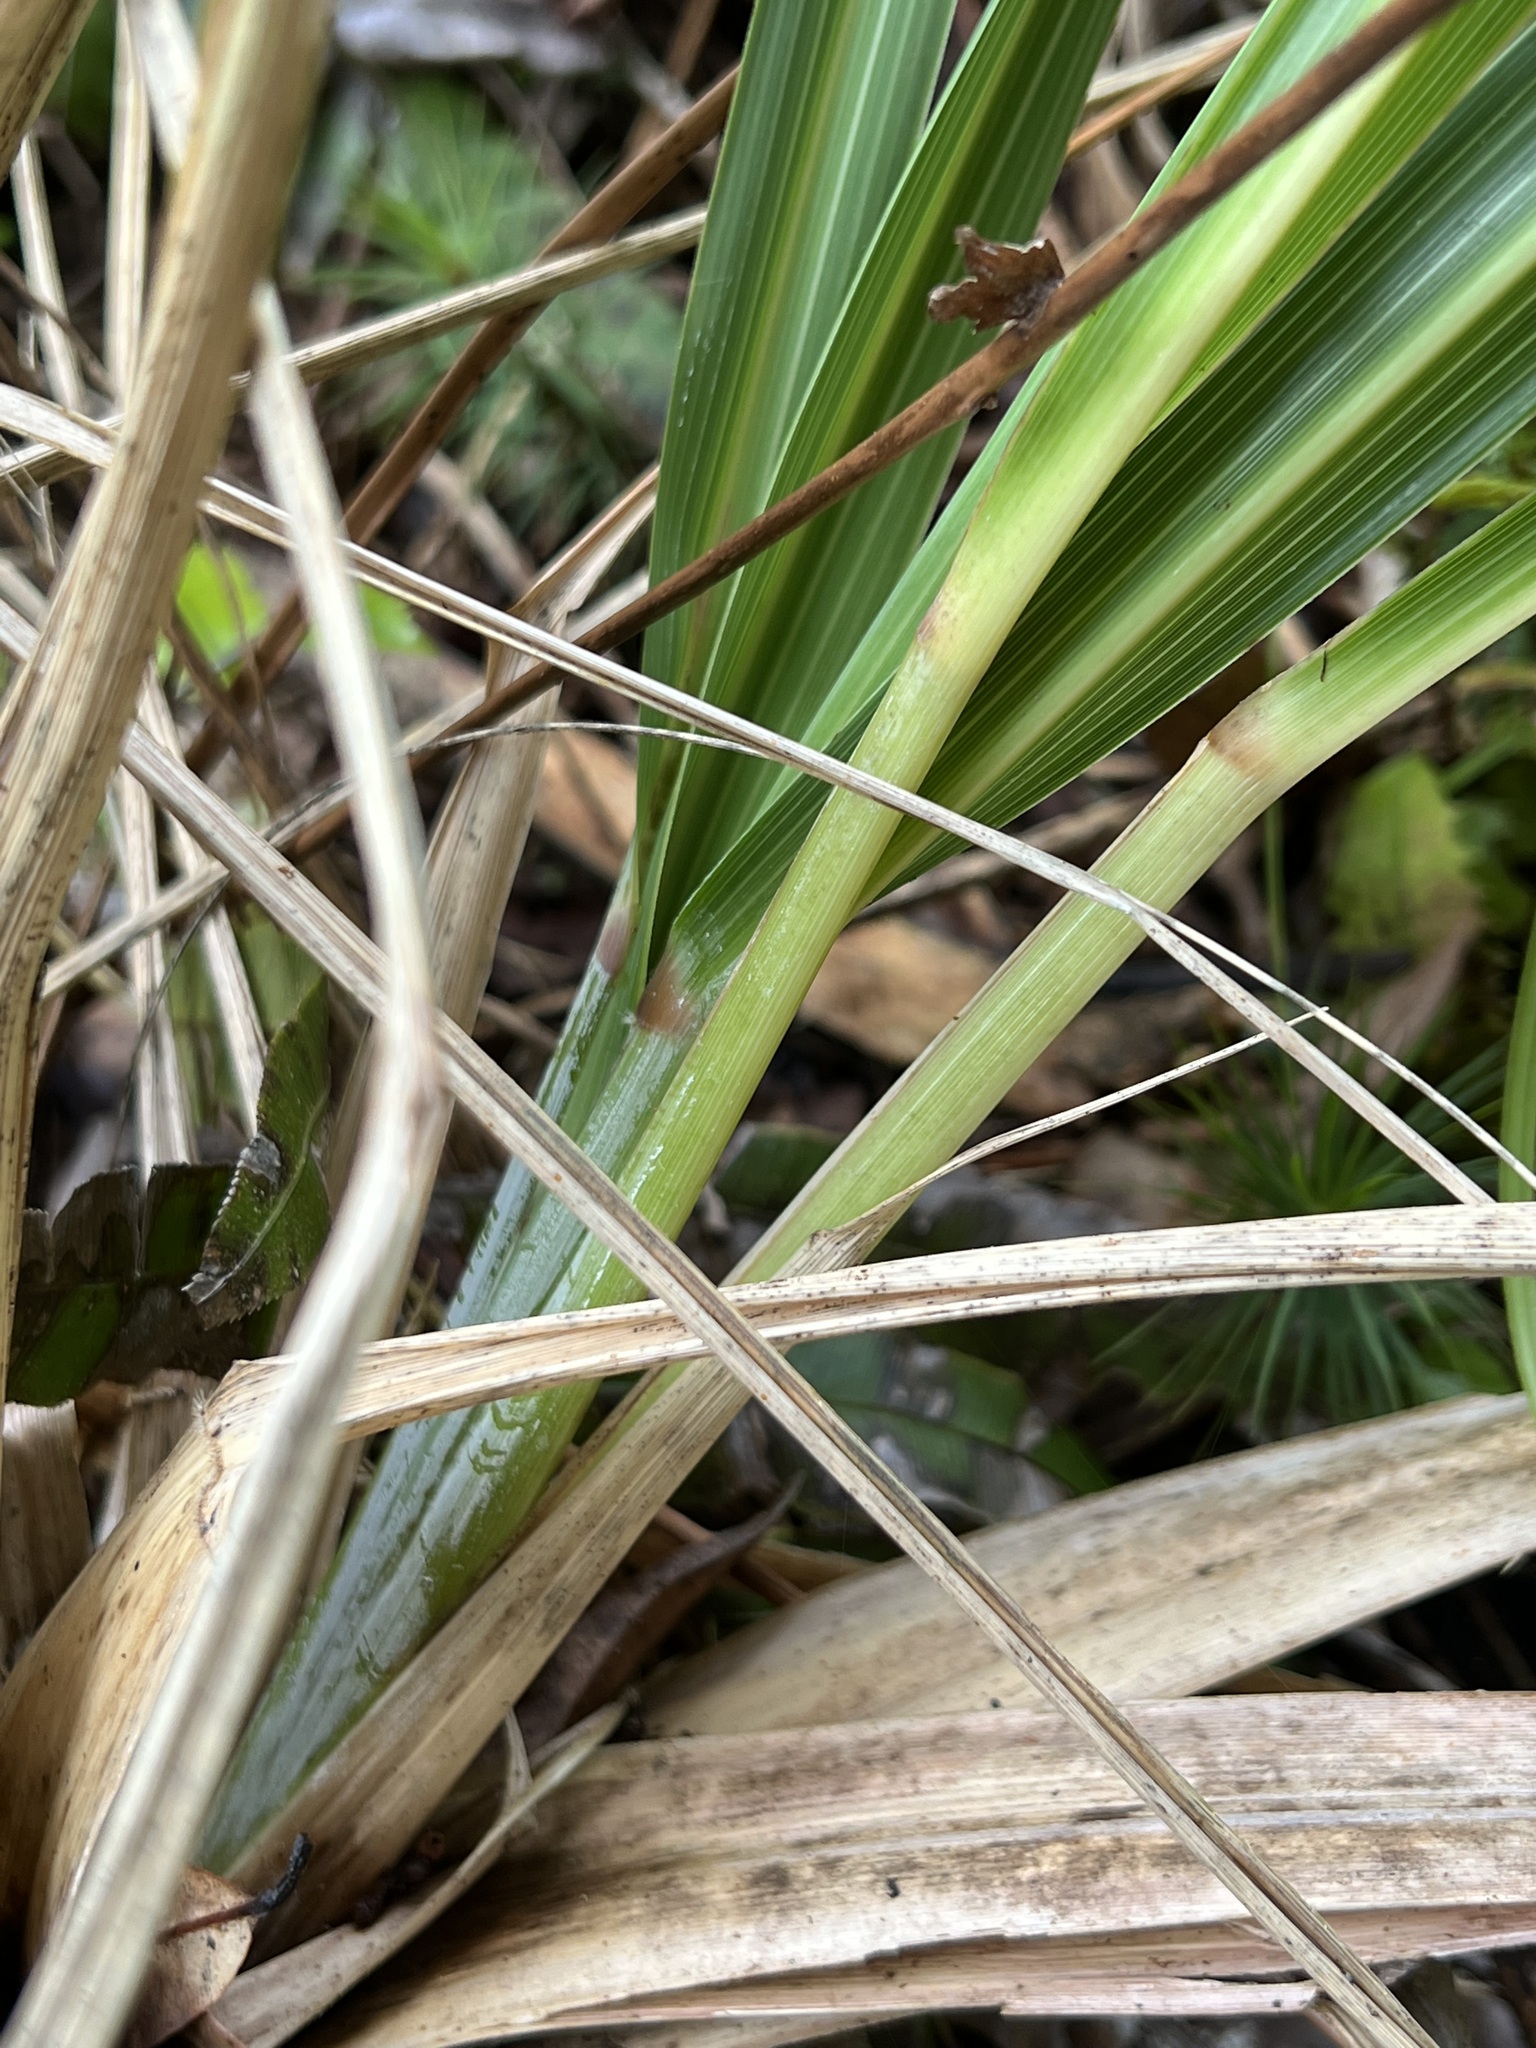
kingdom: Plantae
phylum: Tracheophyta
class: Liliopsida
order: Poales
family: Poaceae
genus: Austroderia
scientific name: Austroderia fulvida
